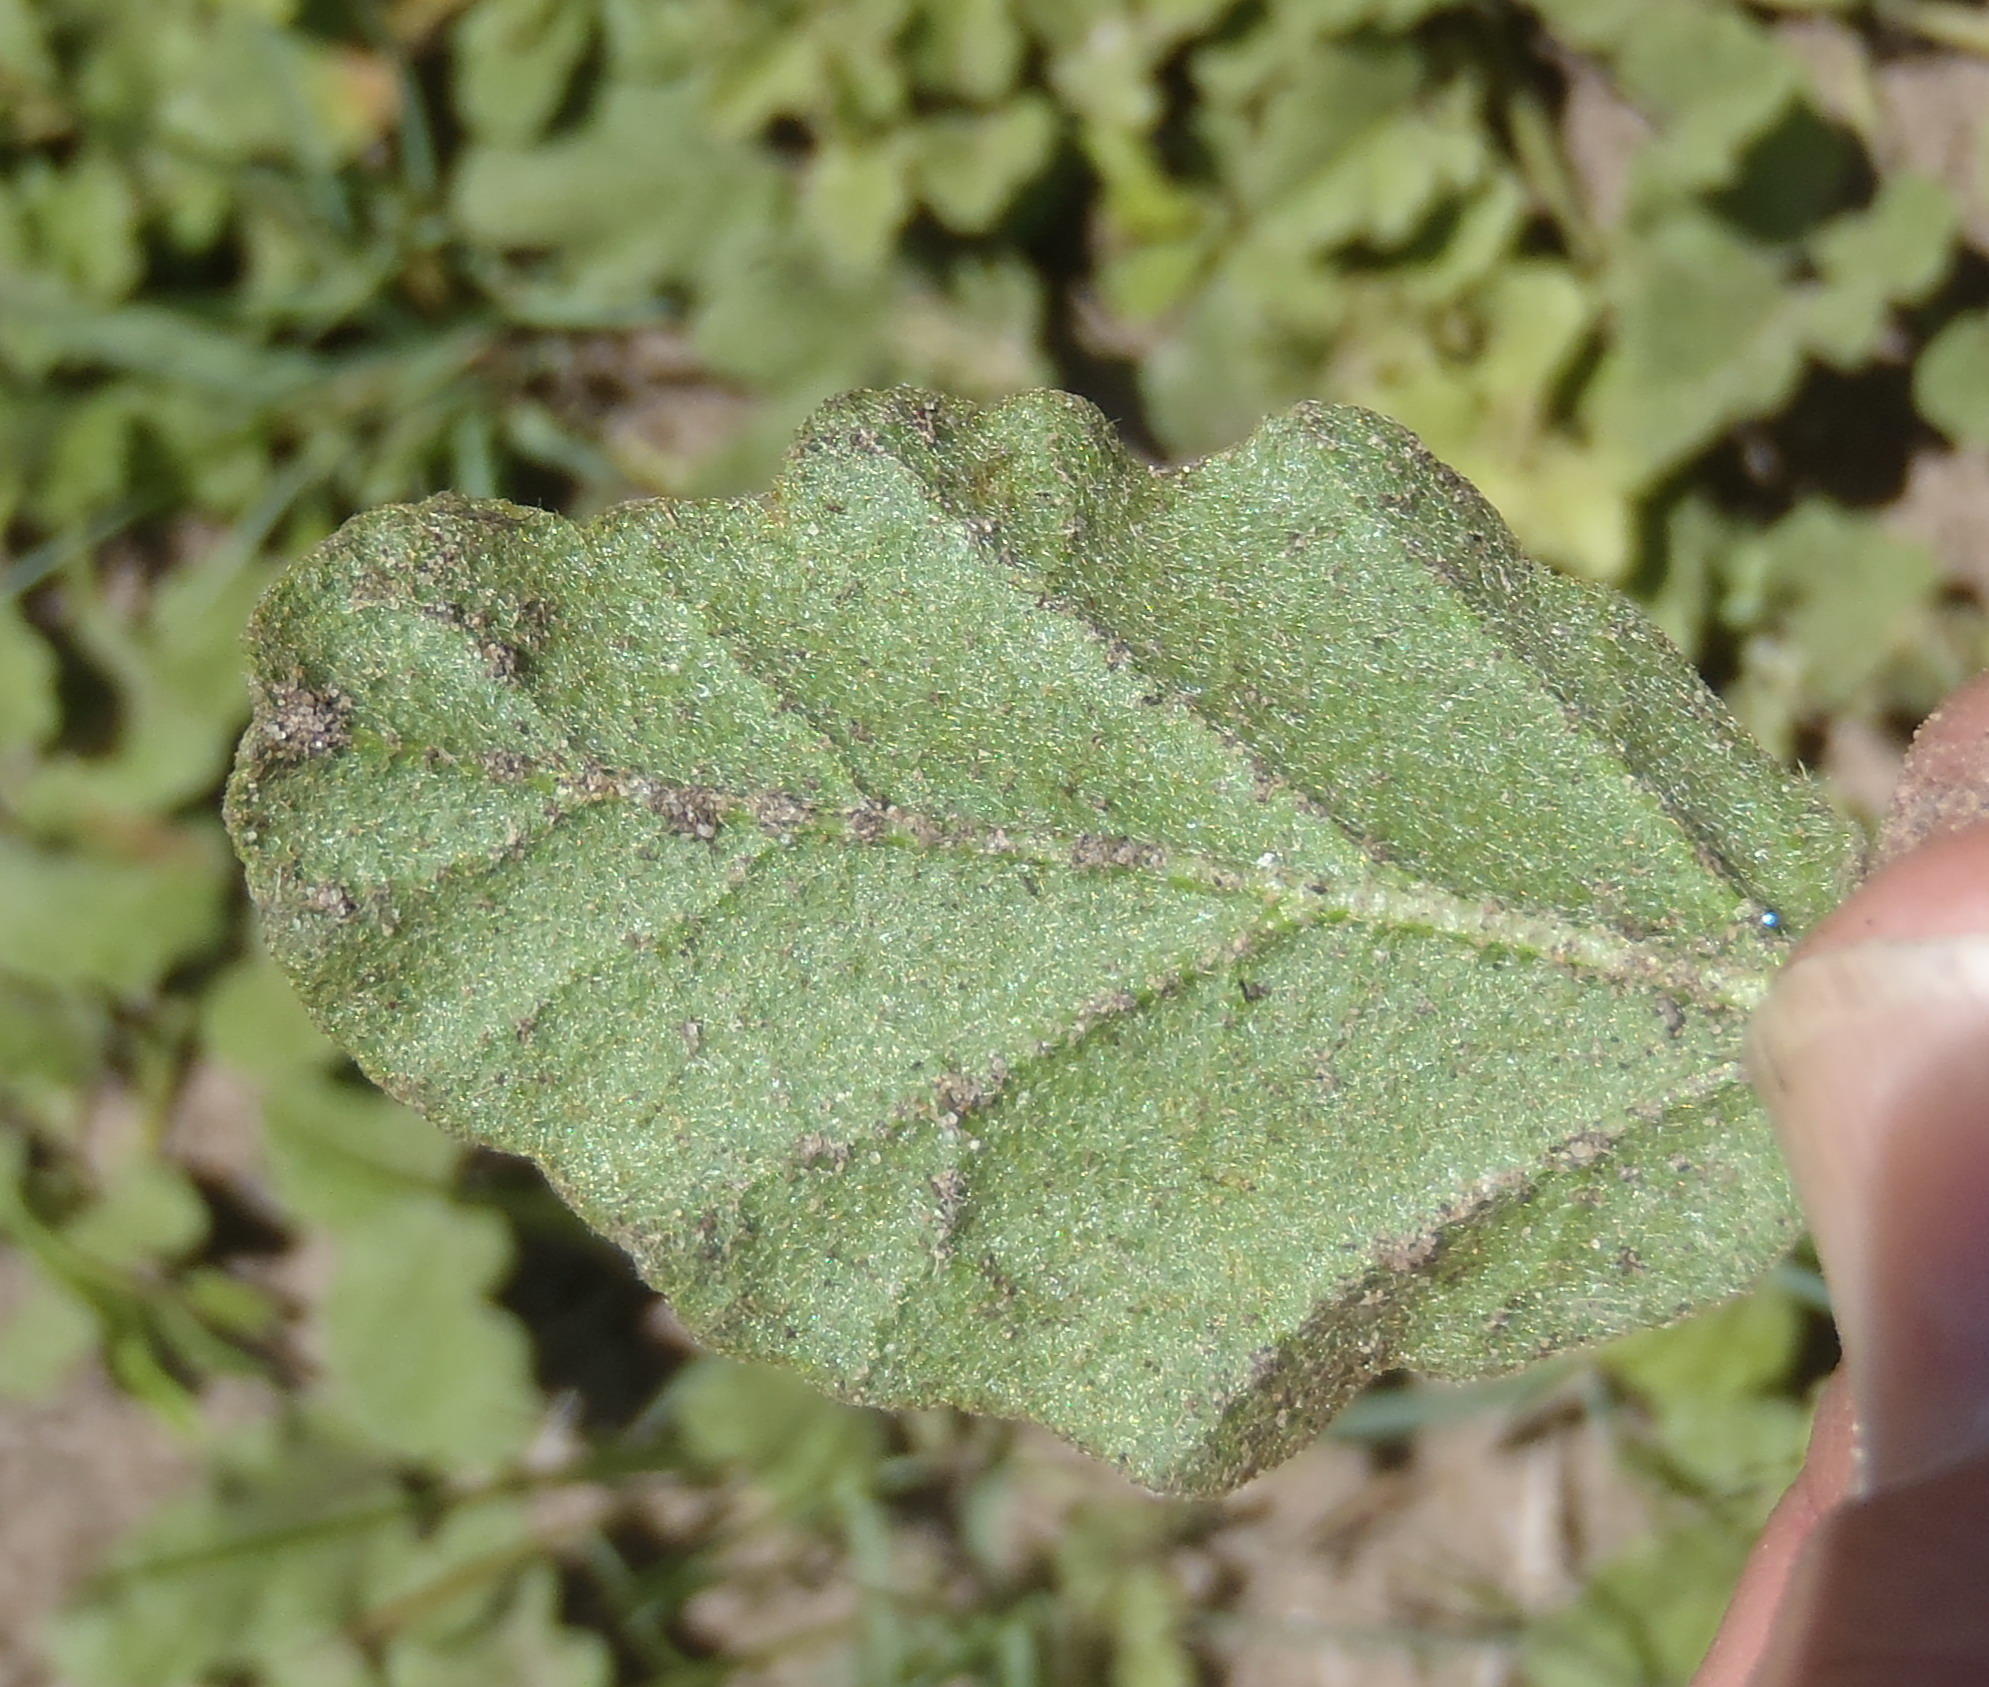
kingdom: Plantae
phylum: Tracheophyta
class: Magnoliopsida
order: Malvales
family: Malvaceae
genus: Hermannia
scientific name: Hermannia decumbens
